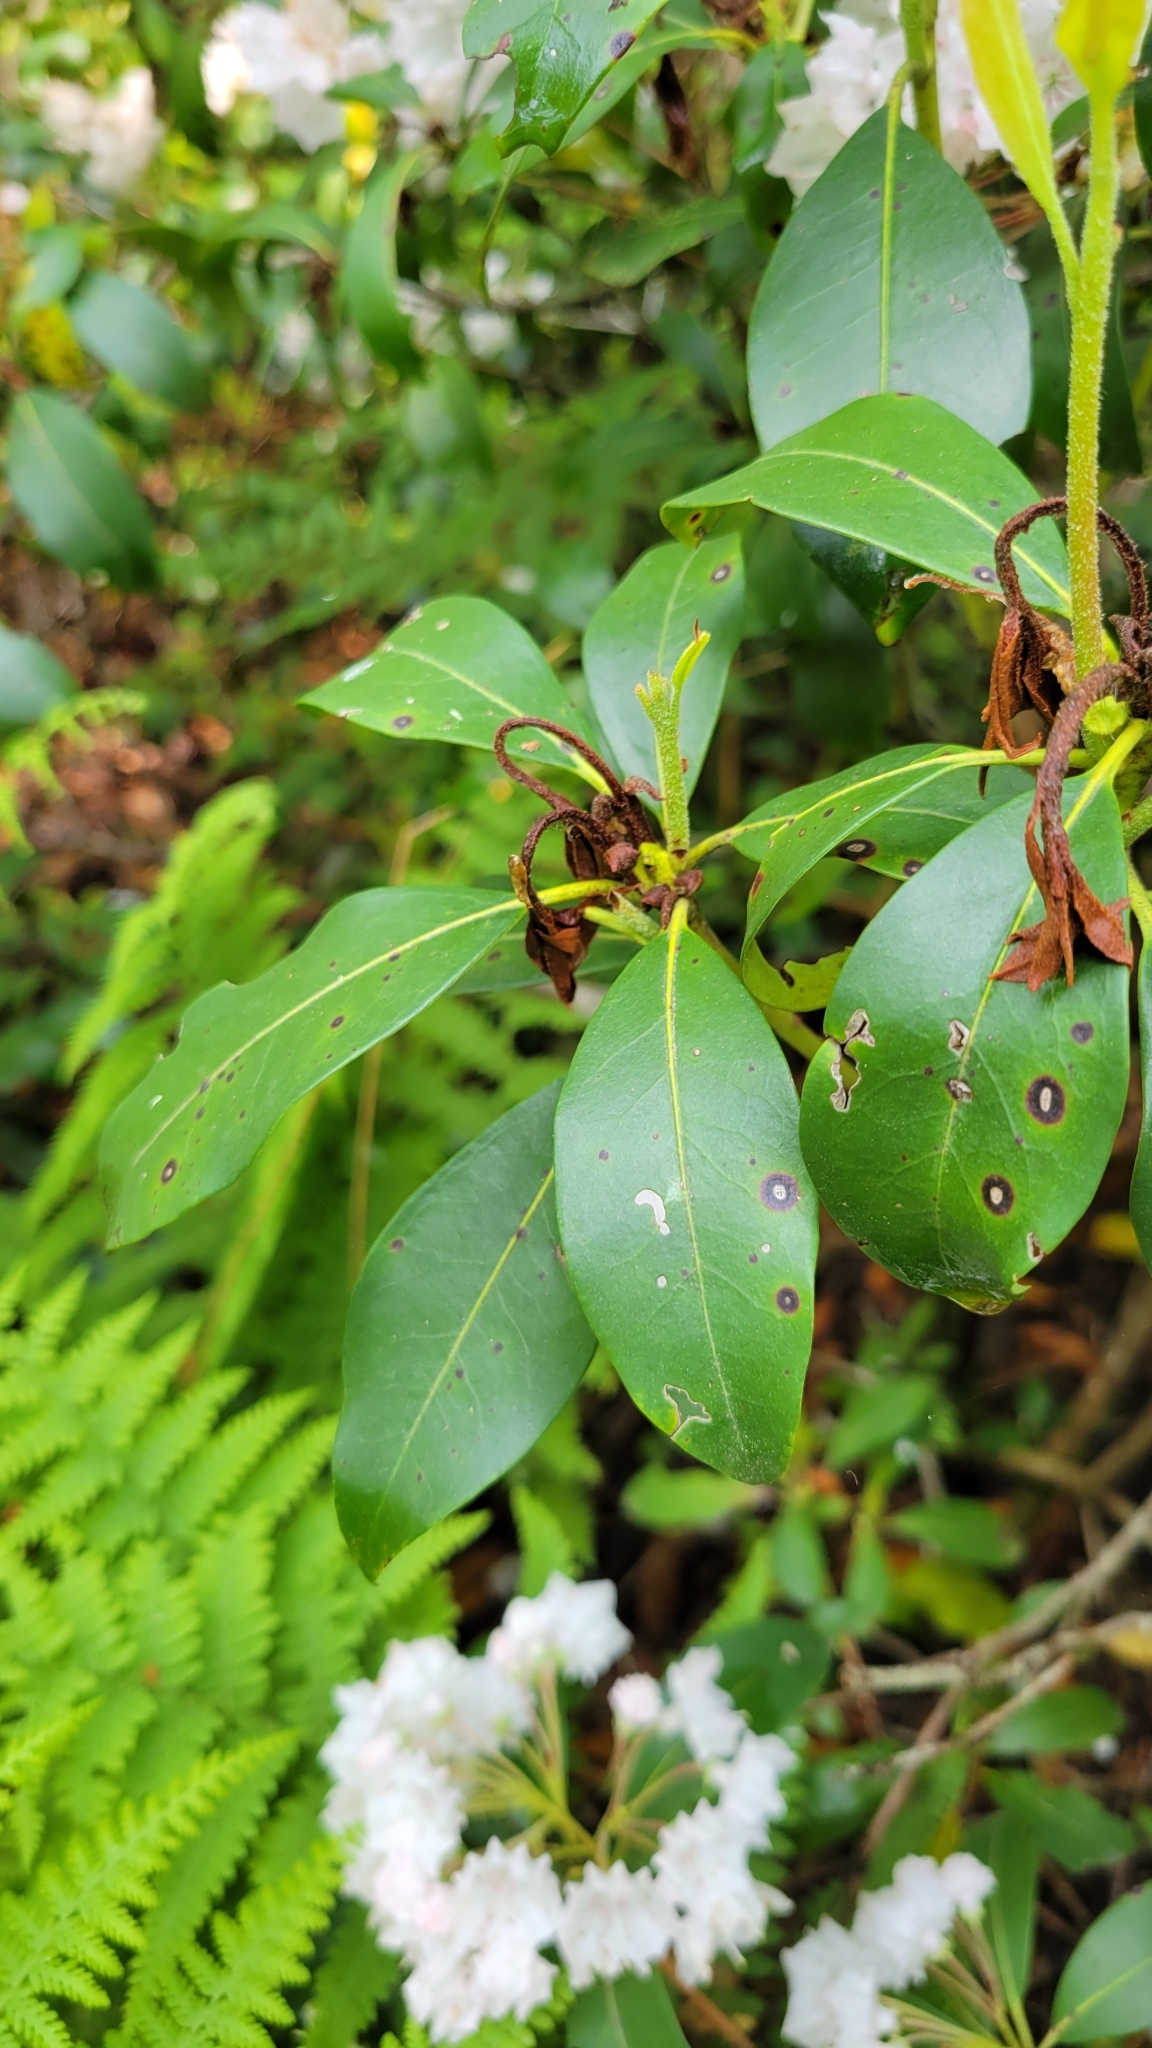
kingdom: Plantae
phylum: Tracheophyta
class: Magnoliopsida
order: Ericales
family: Ericaceae
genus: Kalmia
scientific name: Kalmia latifolia
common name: Mountain-laurel
